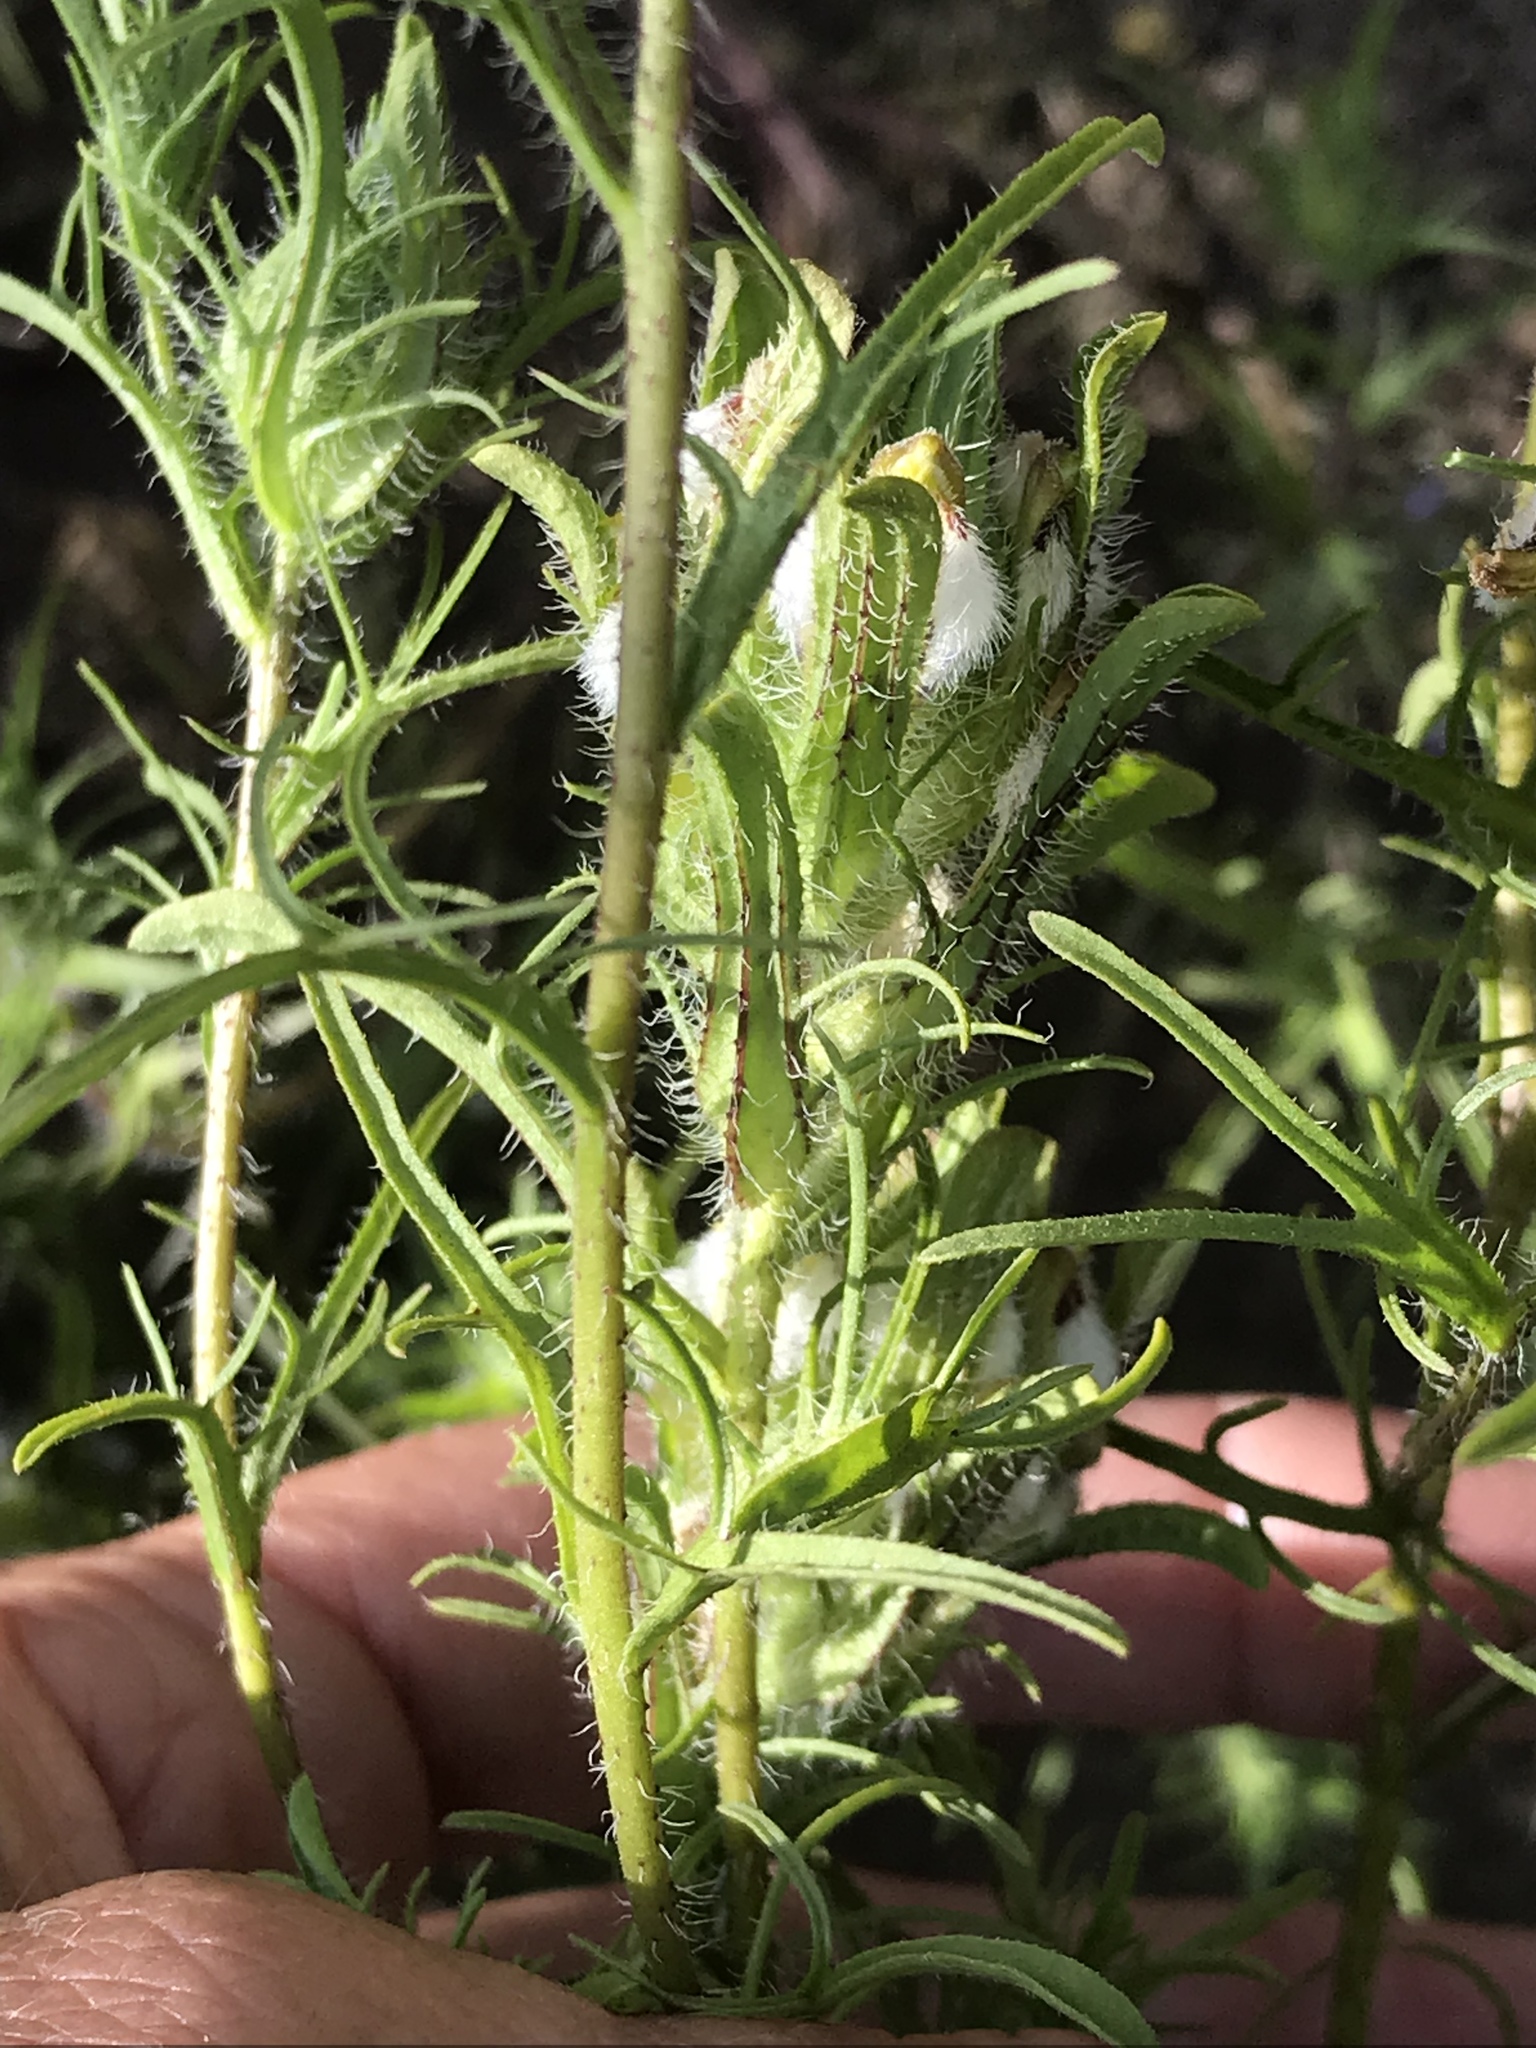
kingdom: Plantae
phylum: Tracheophyta
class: Magnoliopsida
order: Lamiales
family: Orobanchaceae
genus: Dicranostegia
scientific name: Dicranostegia orcuttiana
